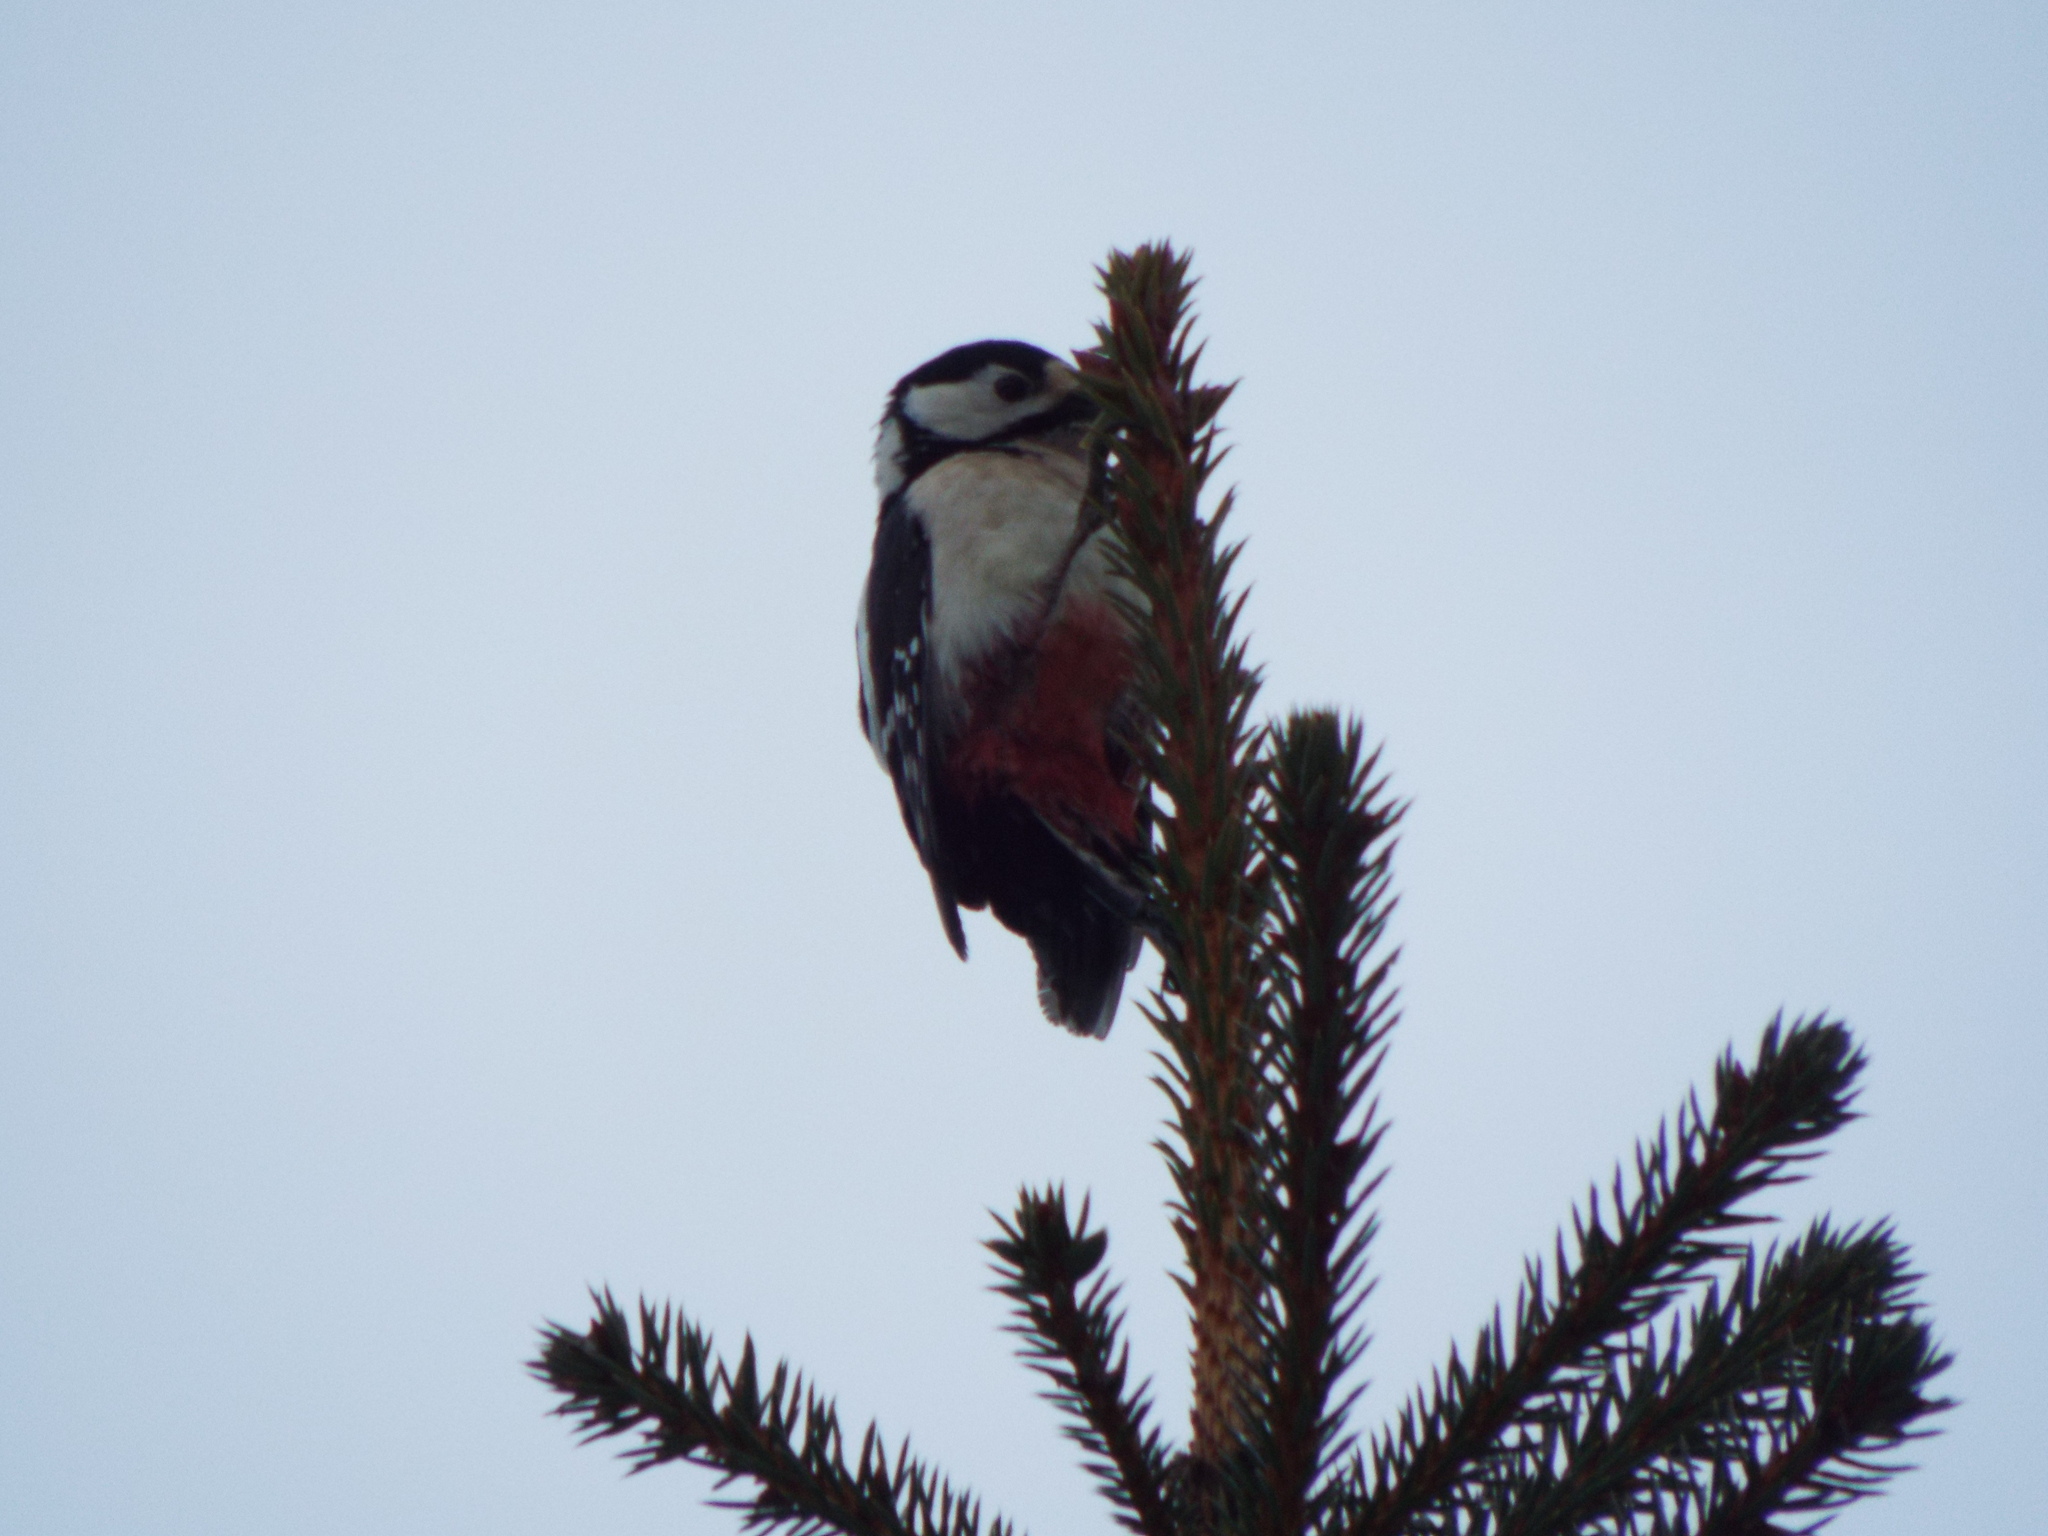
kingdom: Animalia
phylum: Chordata
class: Aves
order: Piciformes
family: Picidae
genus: Dendrocopos
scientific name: Dendrocopos major
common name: Great spotted woodpecker
